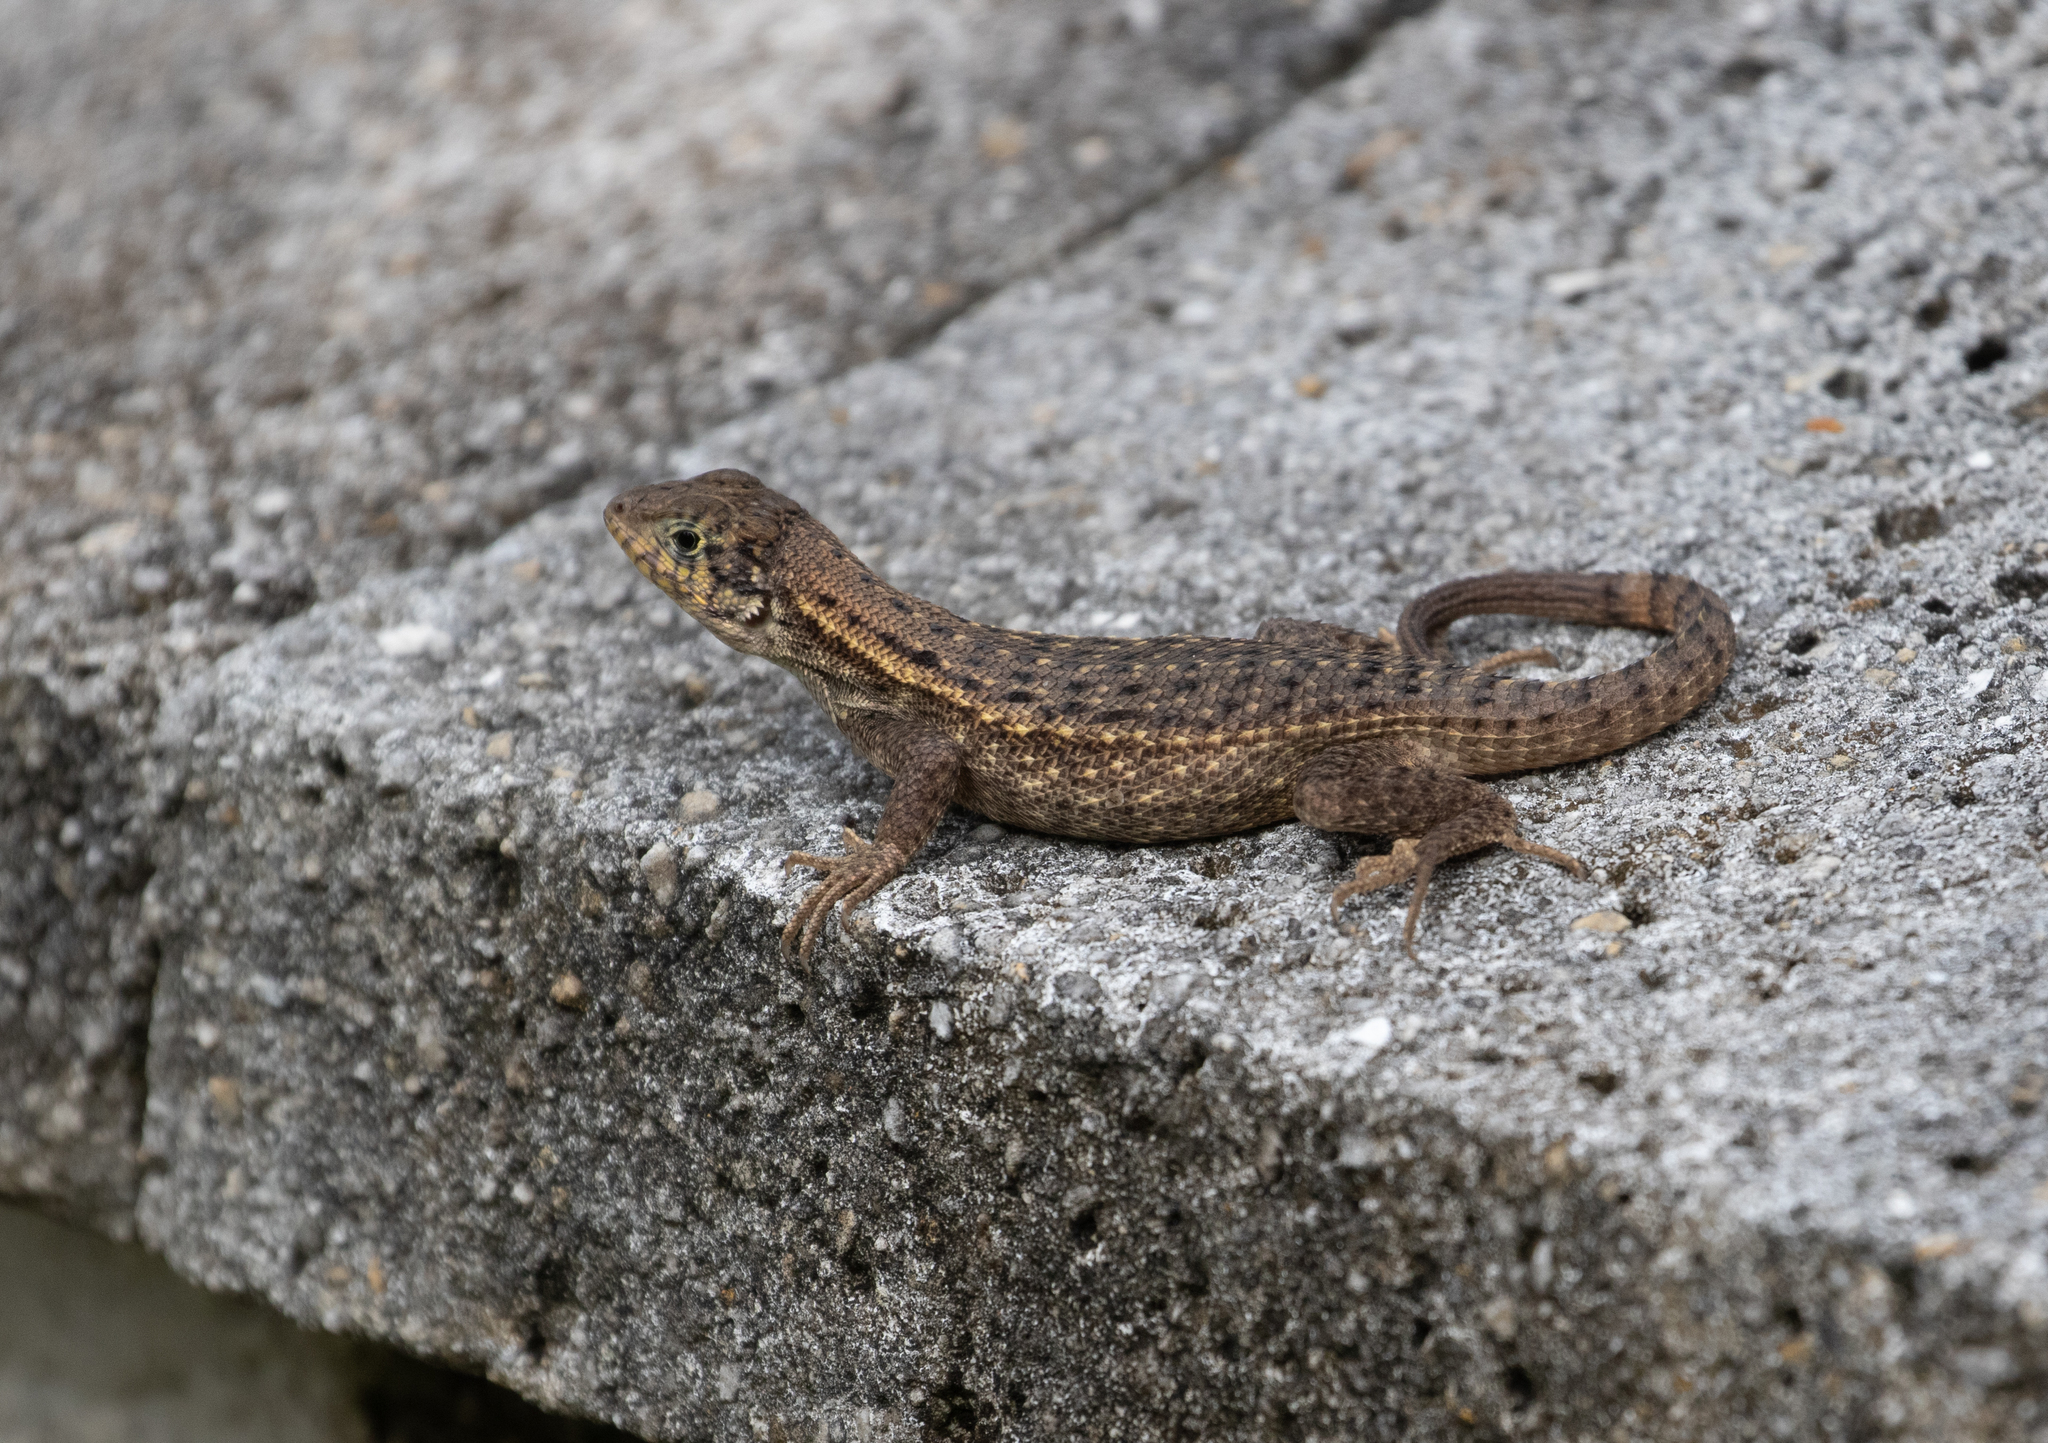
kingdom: Animalia
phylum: Chordata
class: Squamata
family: Leiocephalidae
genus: Leiocephalus
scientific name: Leiocephalus carinatus
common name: Northern curly-tailed lizard
